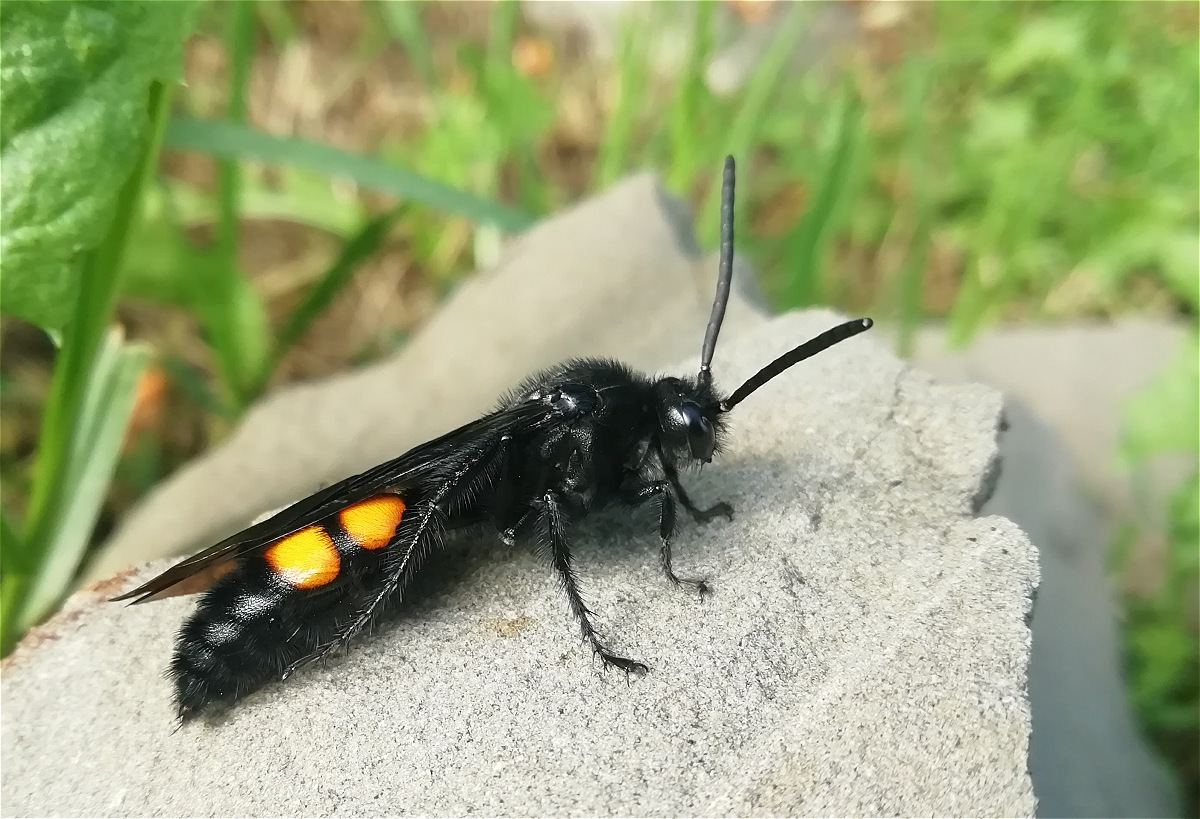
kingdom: Animalia
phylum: Arthropoda
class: Insecta
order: Hymenoptera
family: Scoliidae
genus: Pygodasis
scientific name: Pygodasis ephippium
